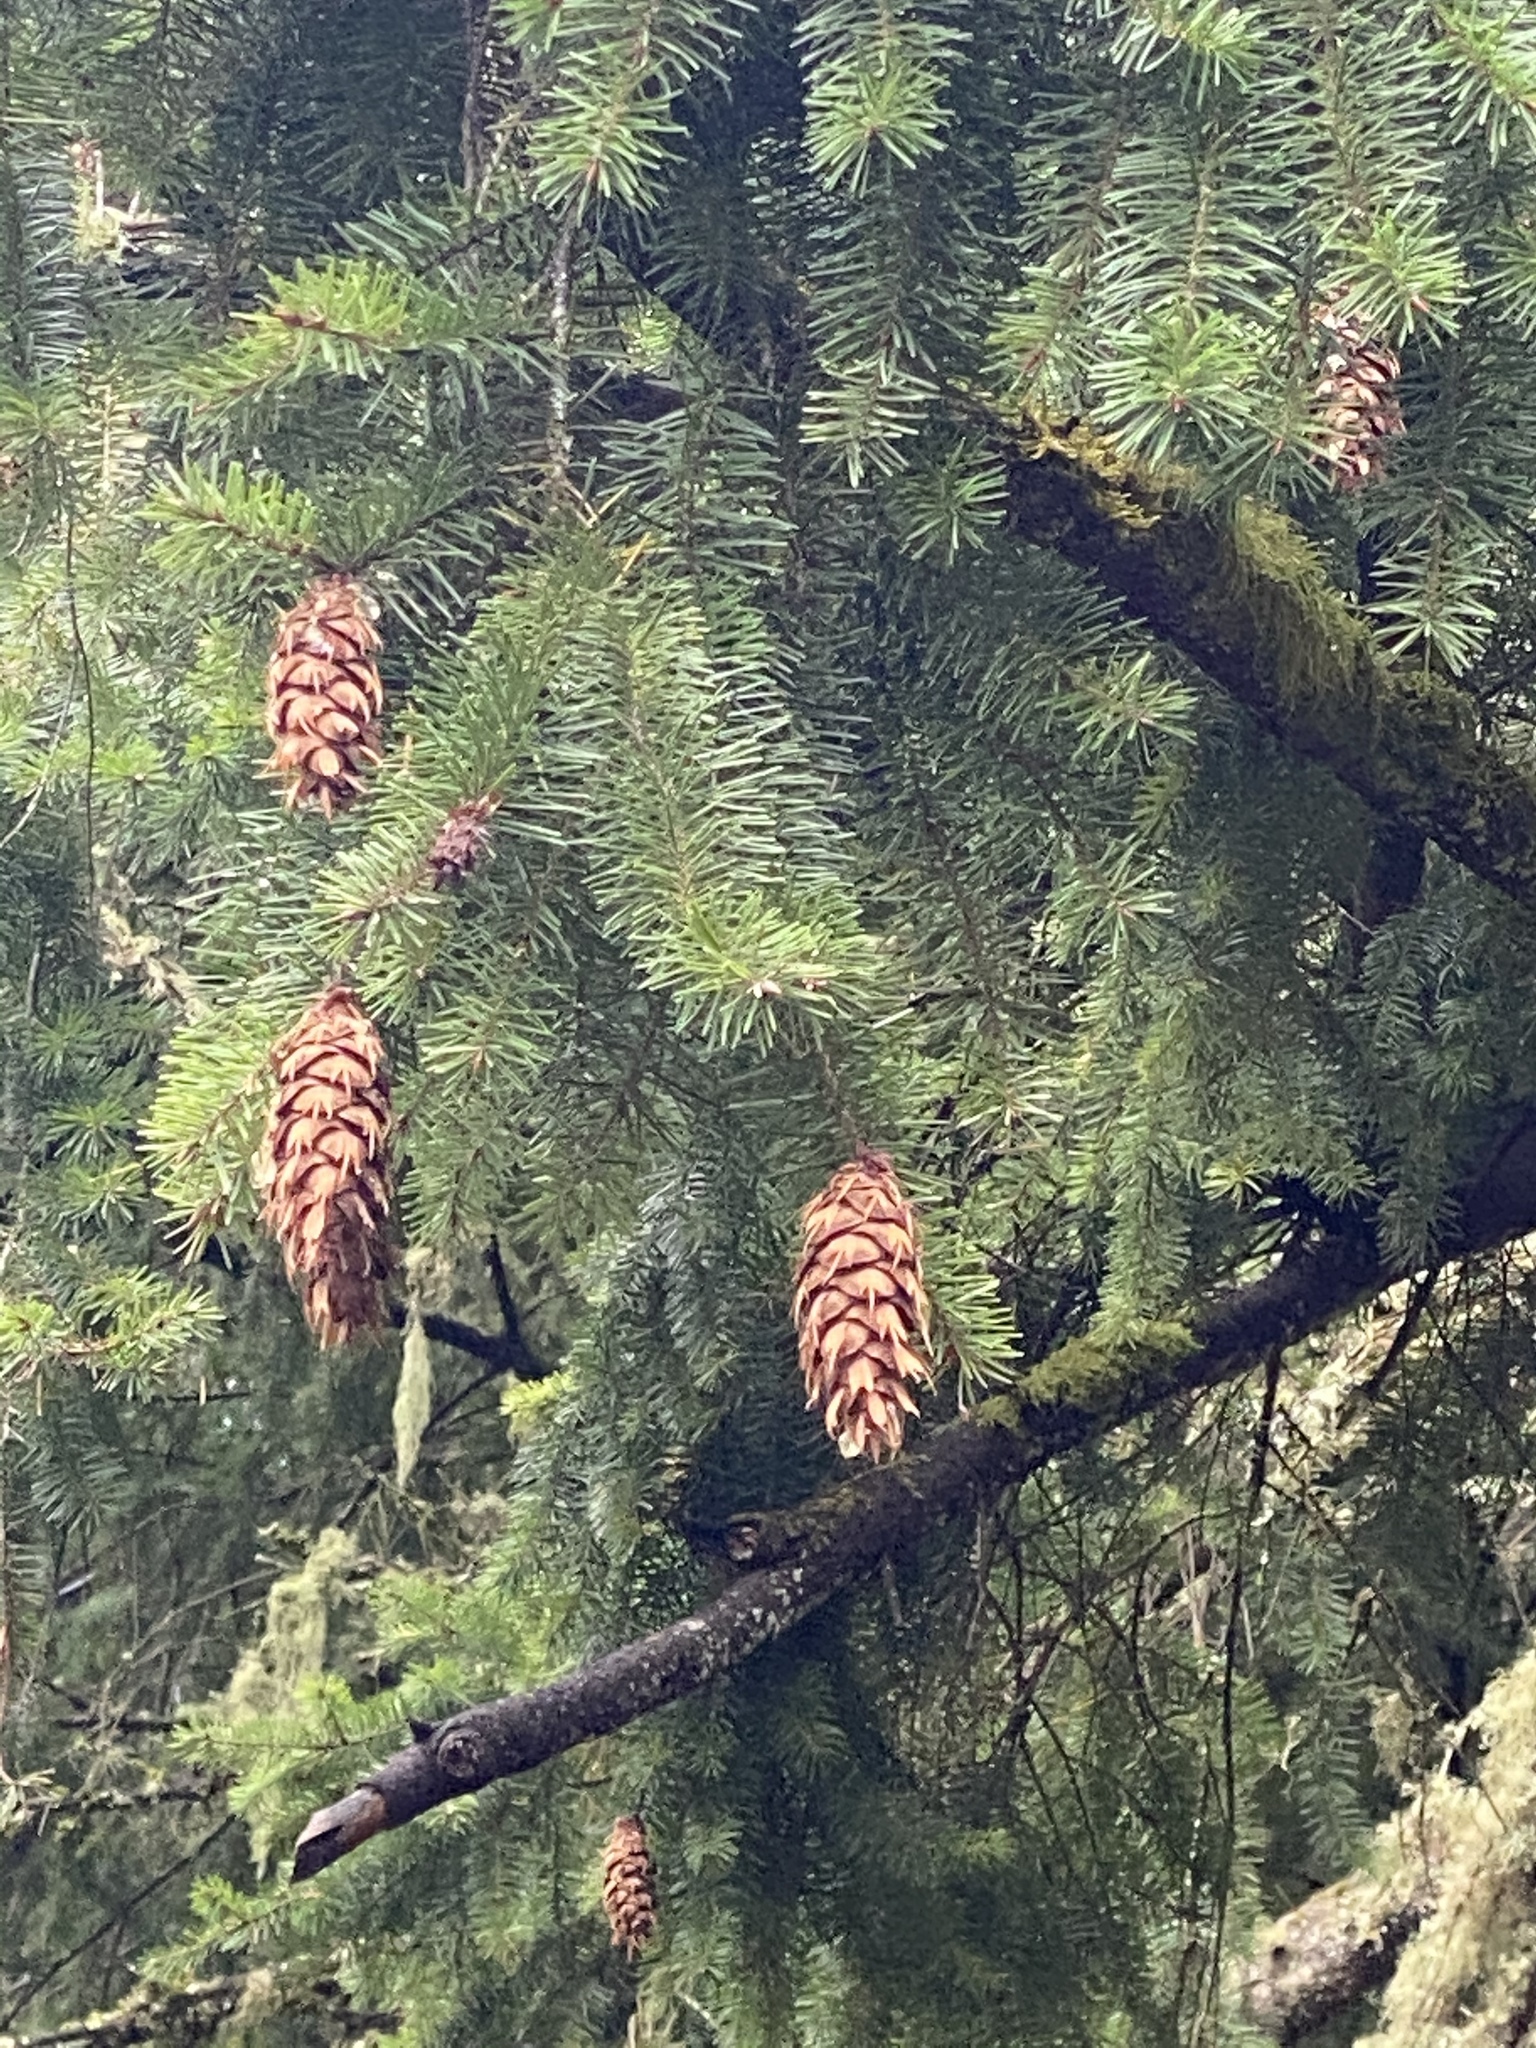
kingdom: Plantae
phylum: Tracheophyta
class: Pinopsida
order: Pinales
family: Pinaceae
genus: Pseudotsuga
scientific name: Pseudotsuga menziesii
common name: Douglas fir
